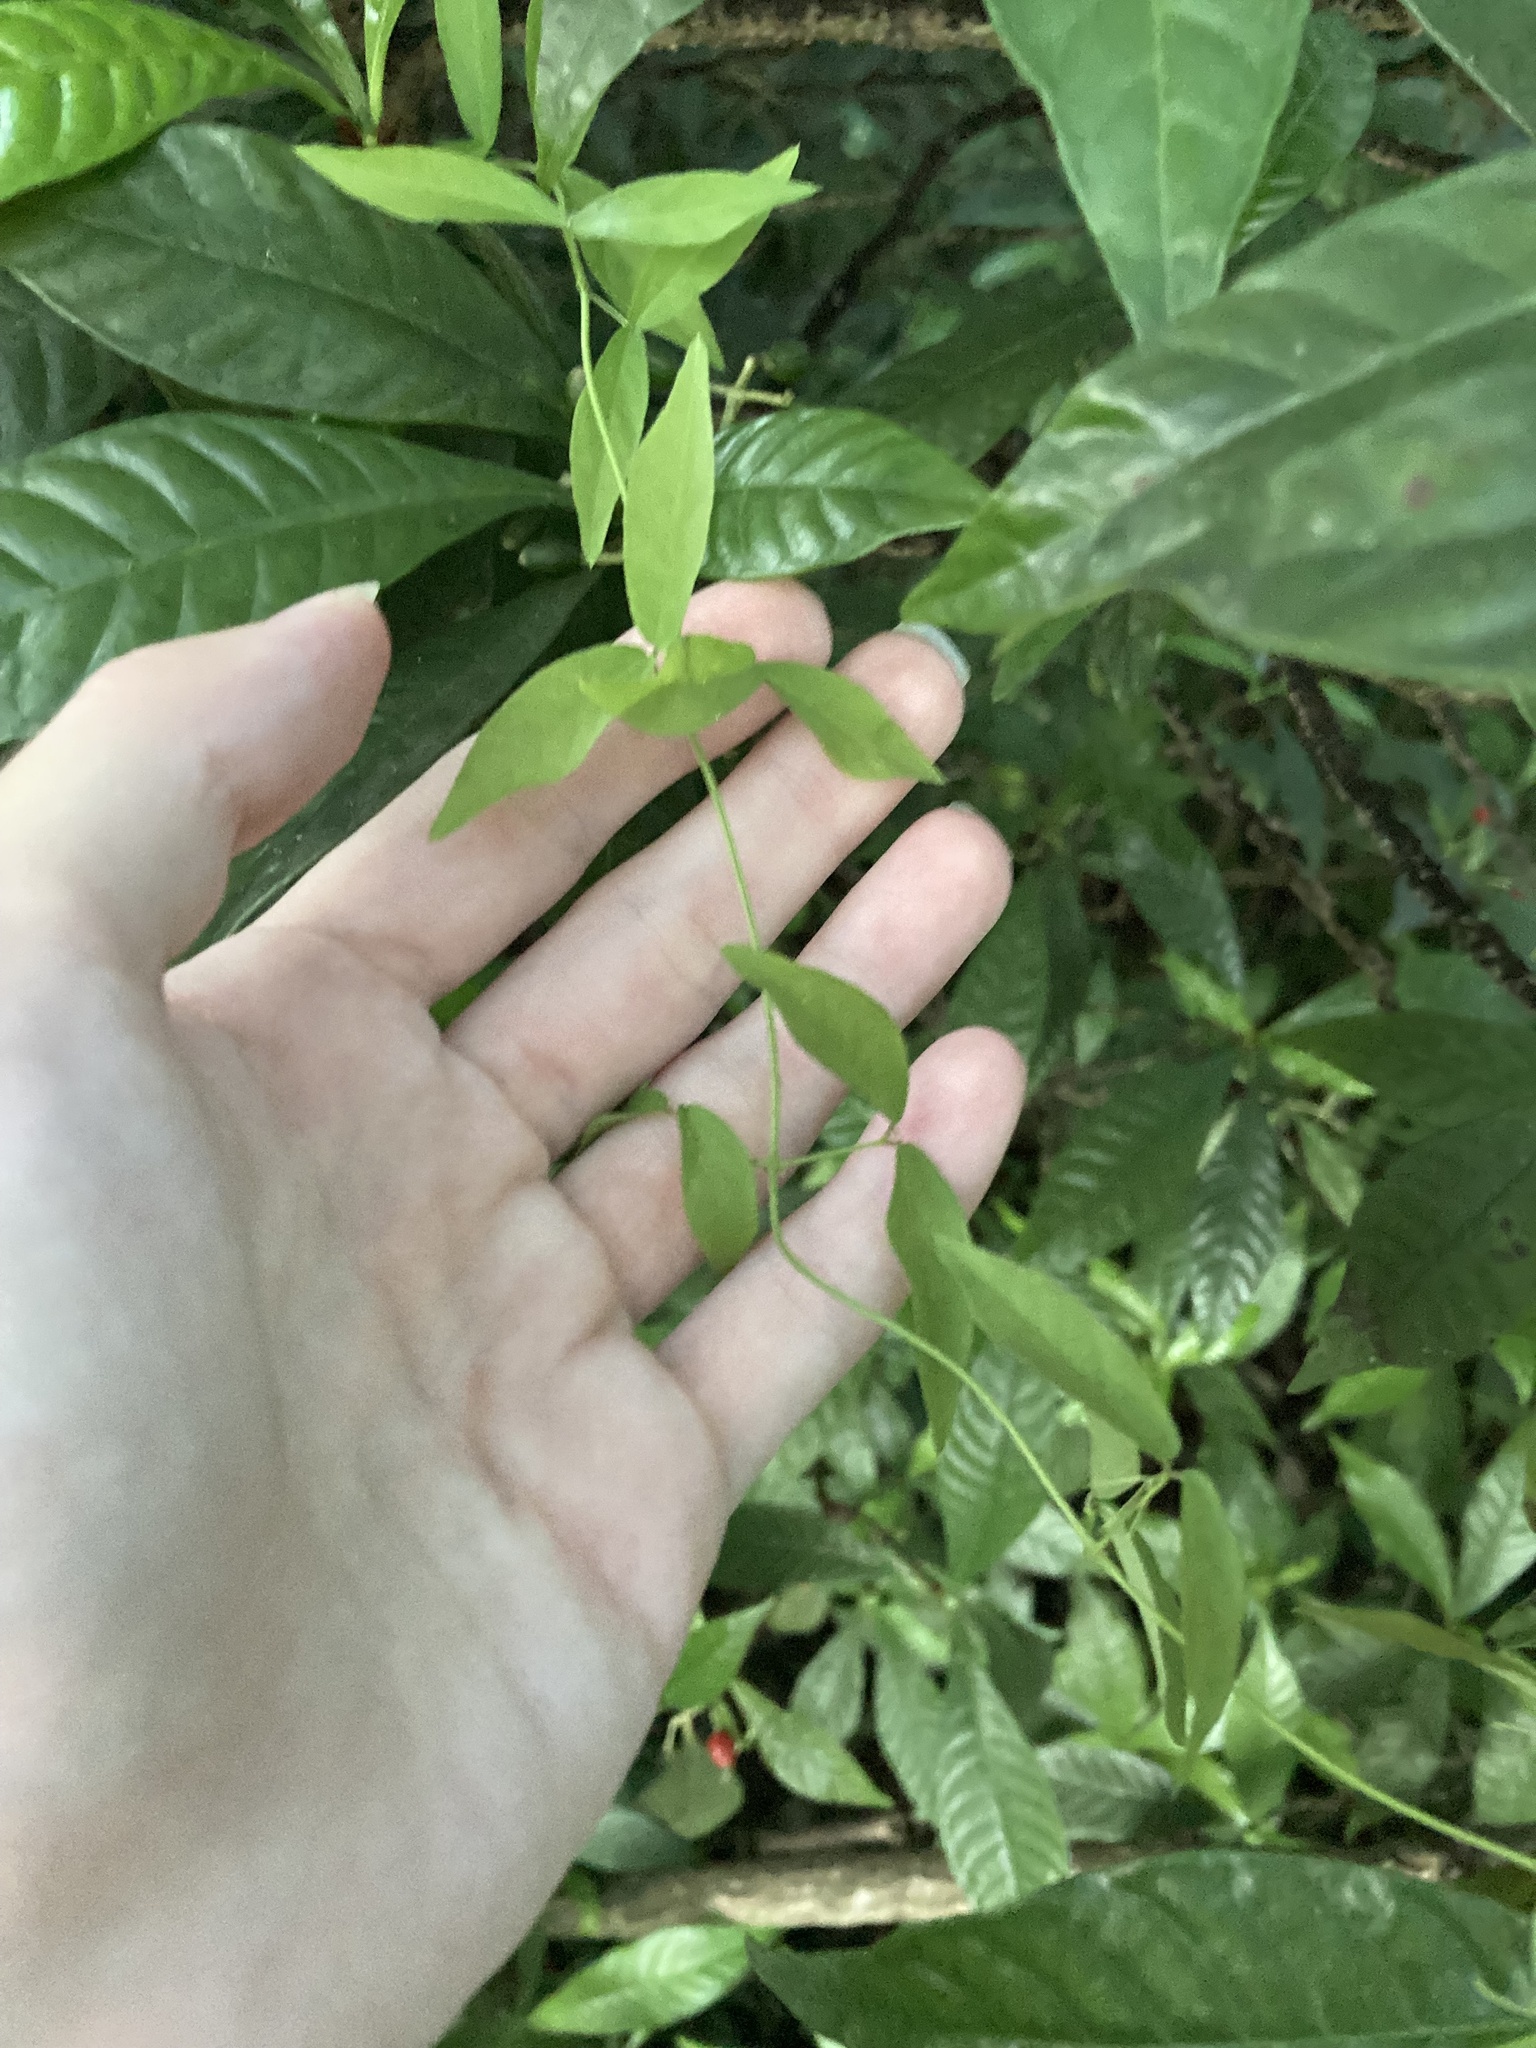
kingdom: Plantae
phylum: Tracheophyta
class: Magnoliopsida
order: Lamiales
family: Bignoniaceae
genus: Dolichandra
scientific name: Dolichandra unguis-cati
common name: Catclaw vine
